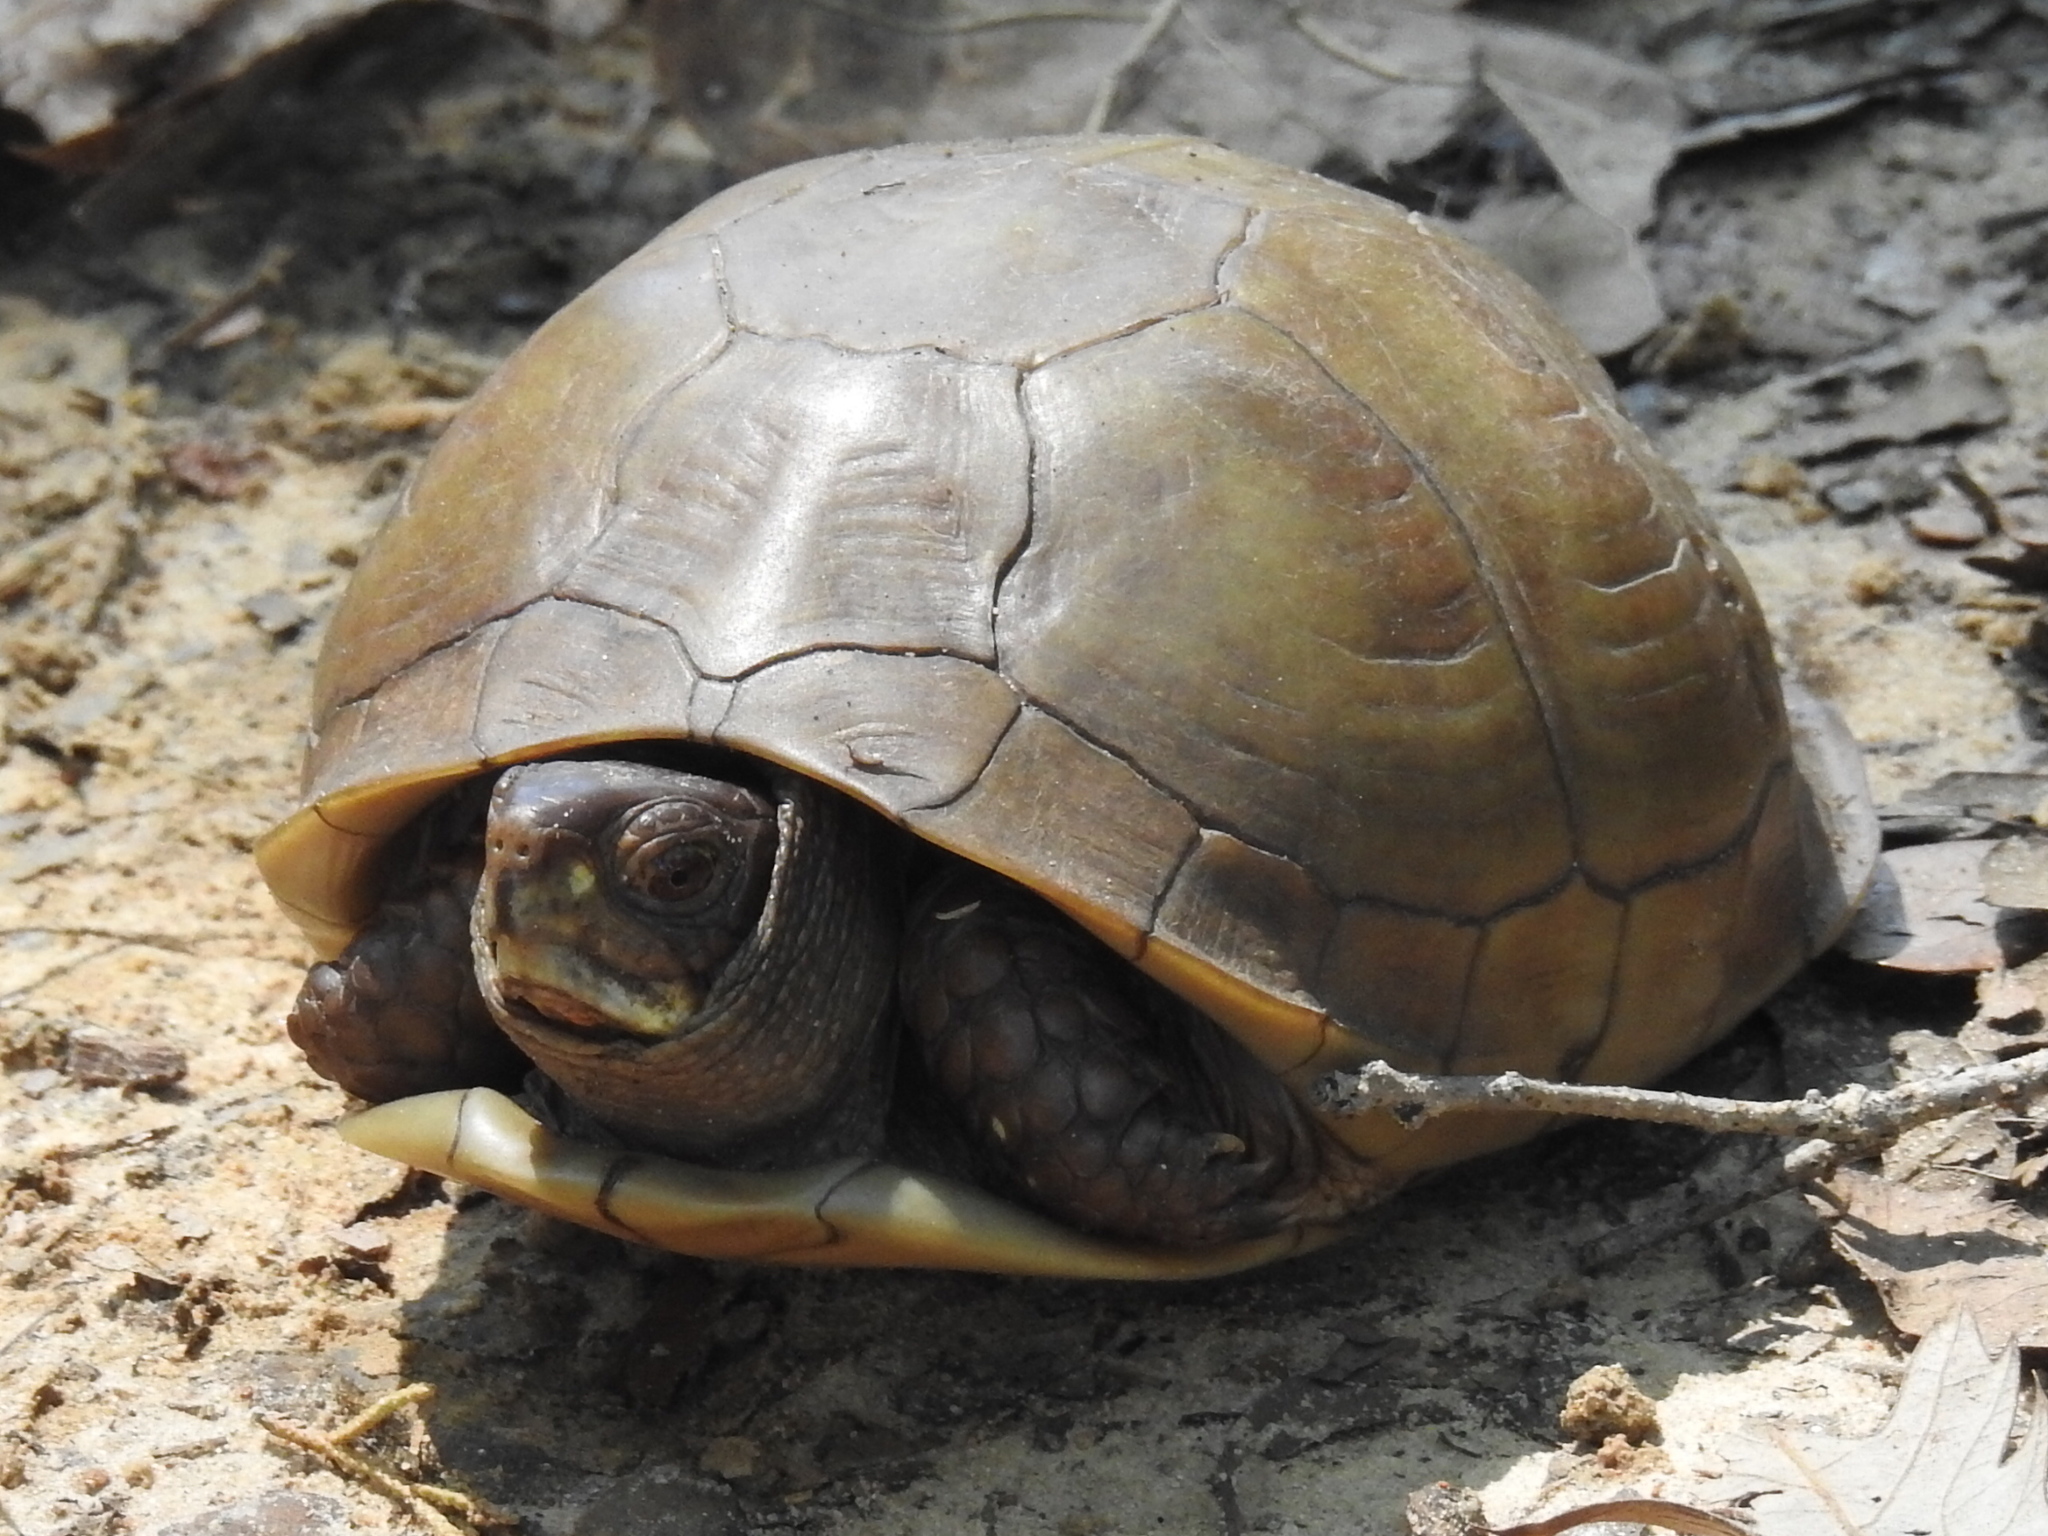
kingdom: Animalia
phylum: Chordata
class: Testudines
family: Emydidae
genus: Terrapene
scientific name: Terrapene carolina
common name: Common box turtle
